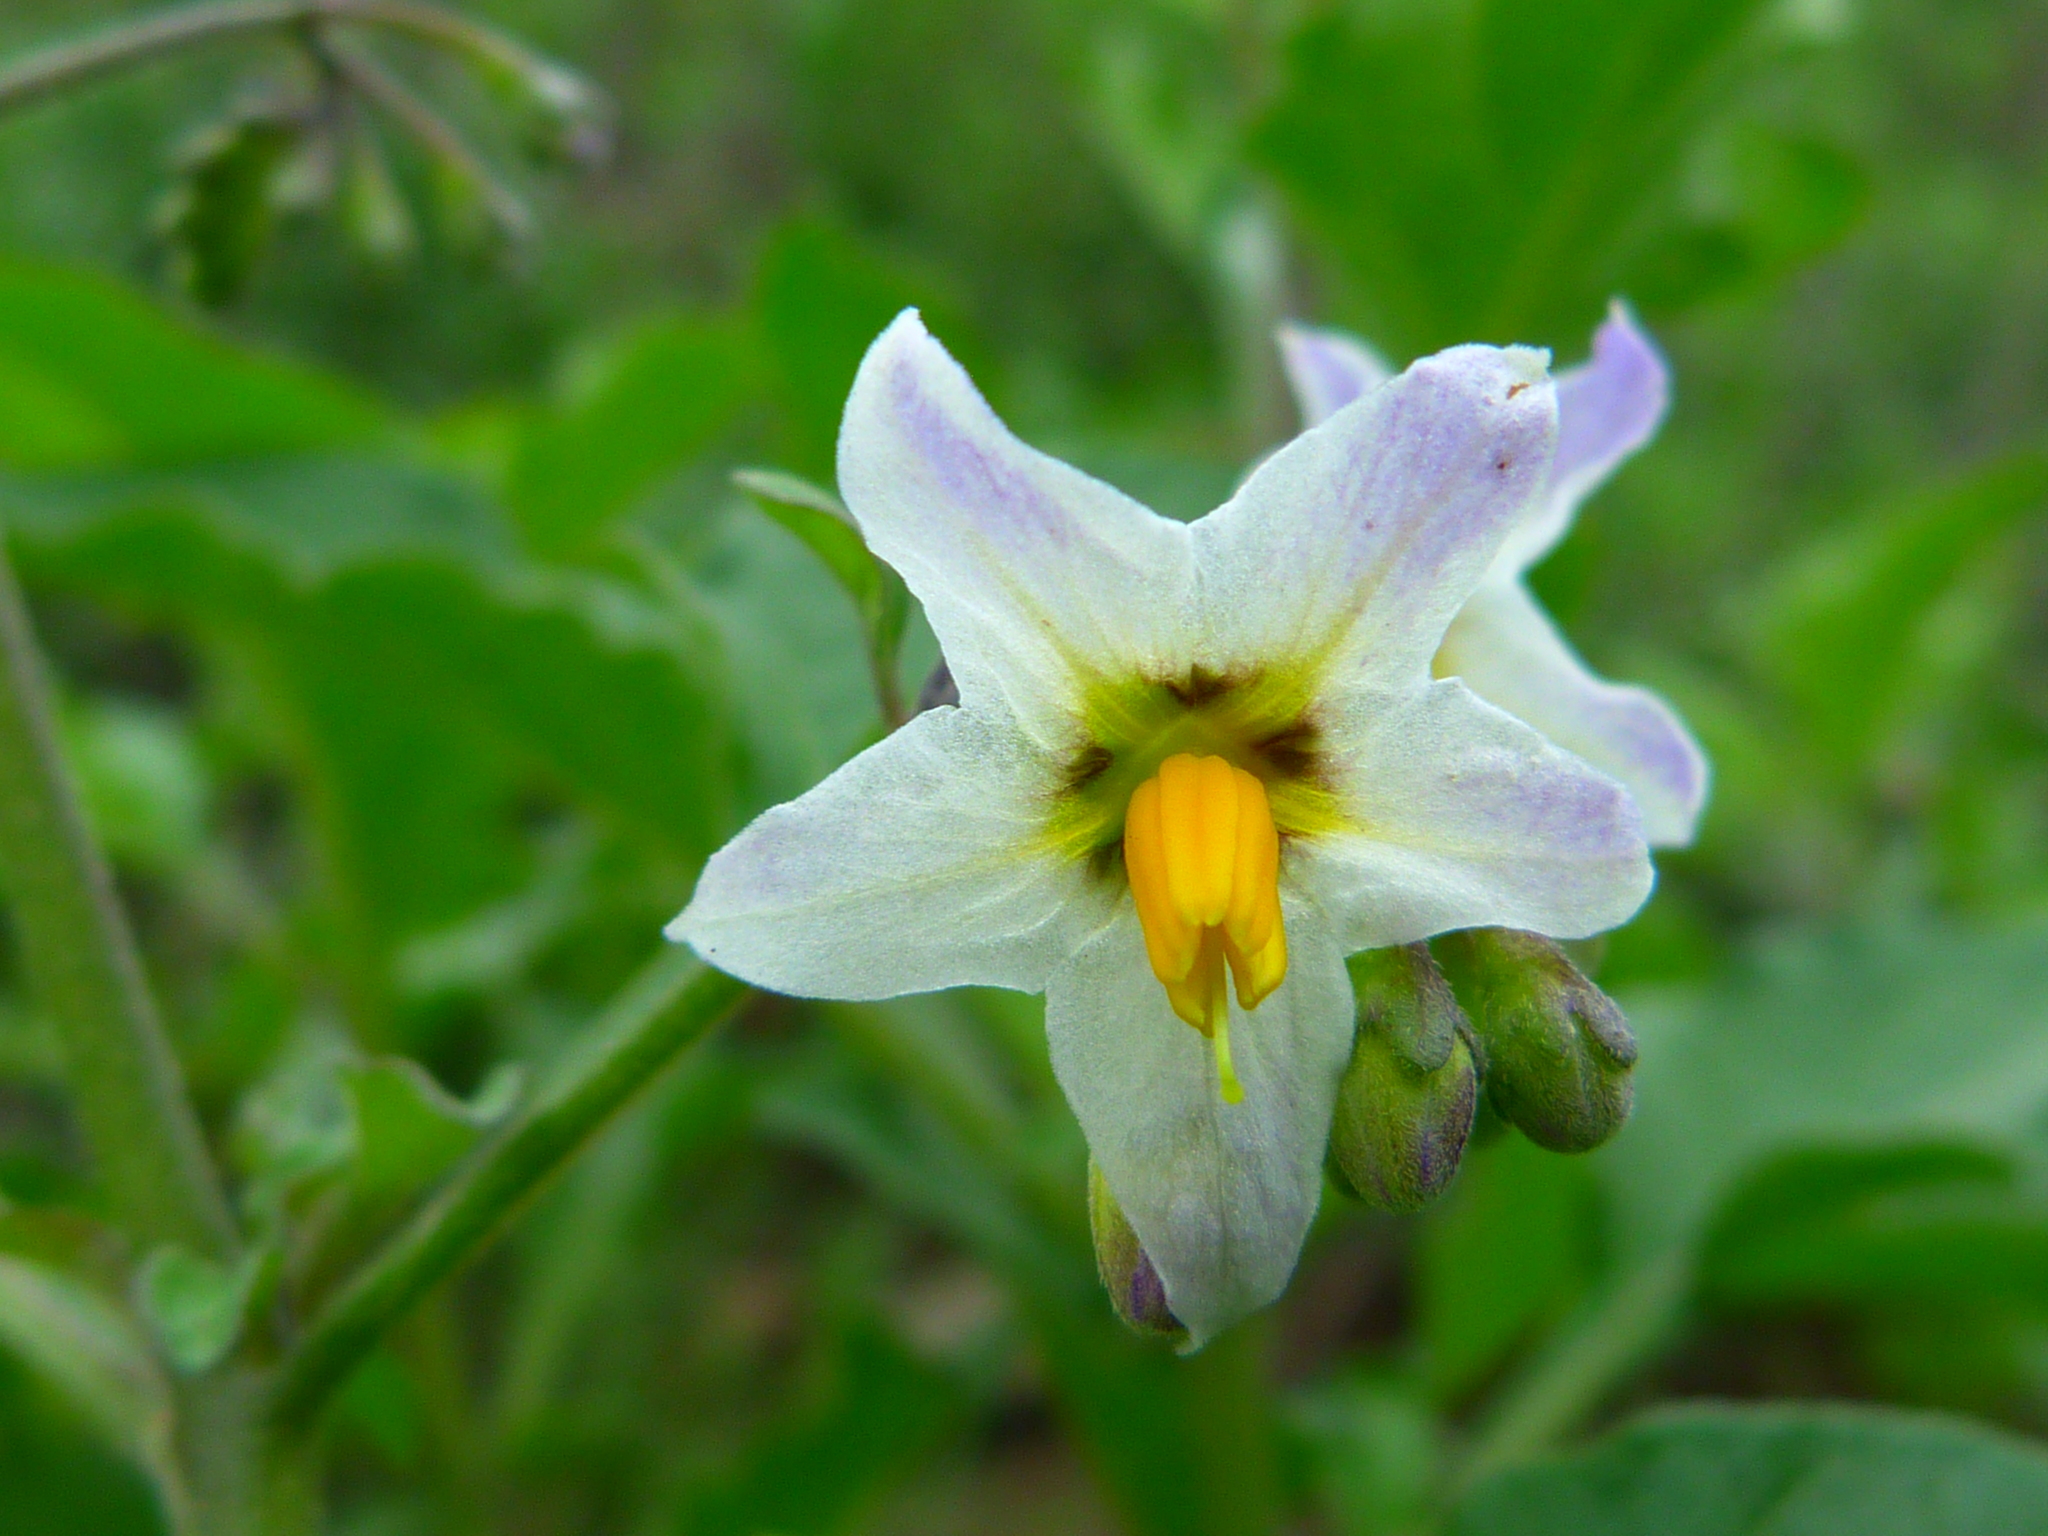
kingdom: Plantae
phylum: Tracheophyta
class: Magnoliopsida
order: Solanales
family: Solanaceae
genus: Solanum
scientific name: Solanum douglasii
